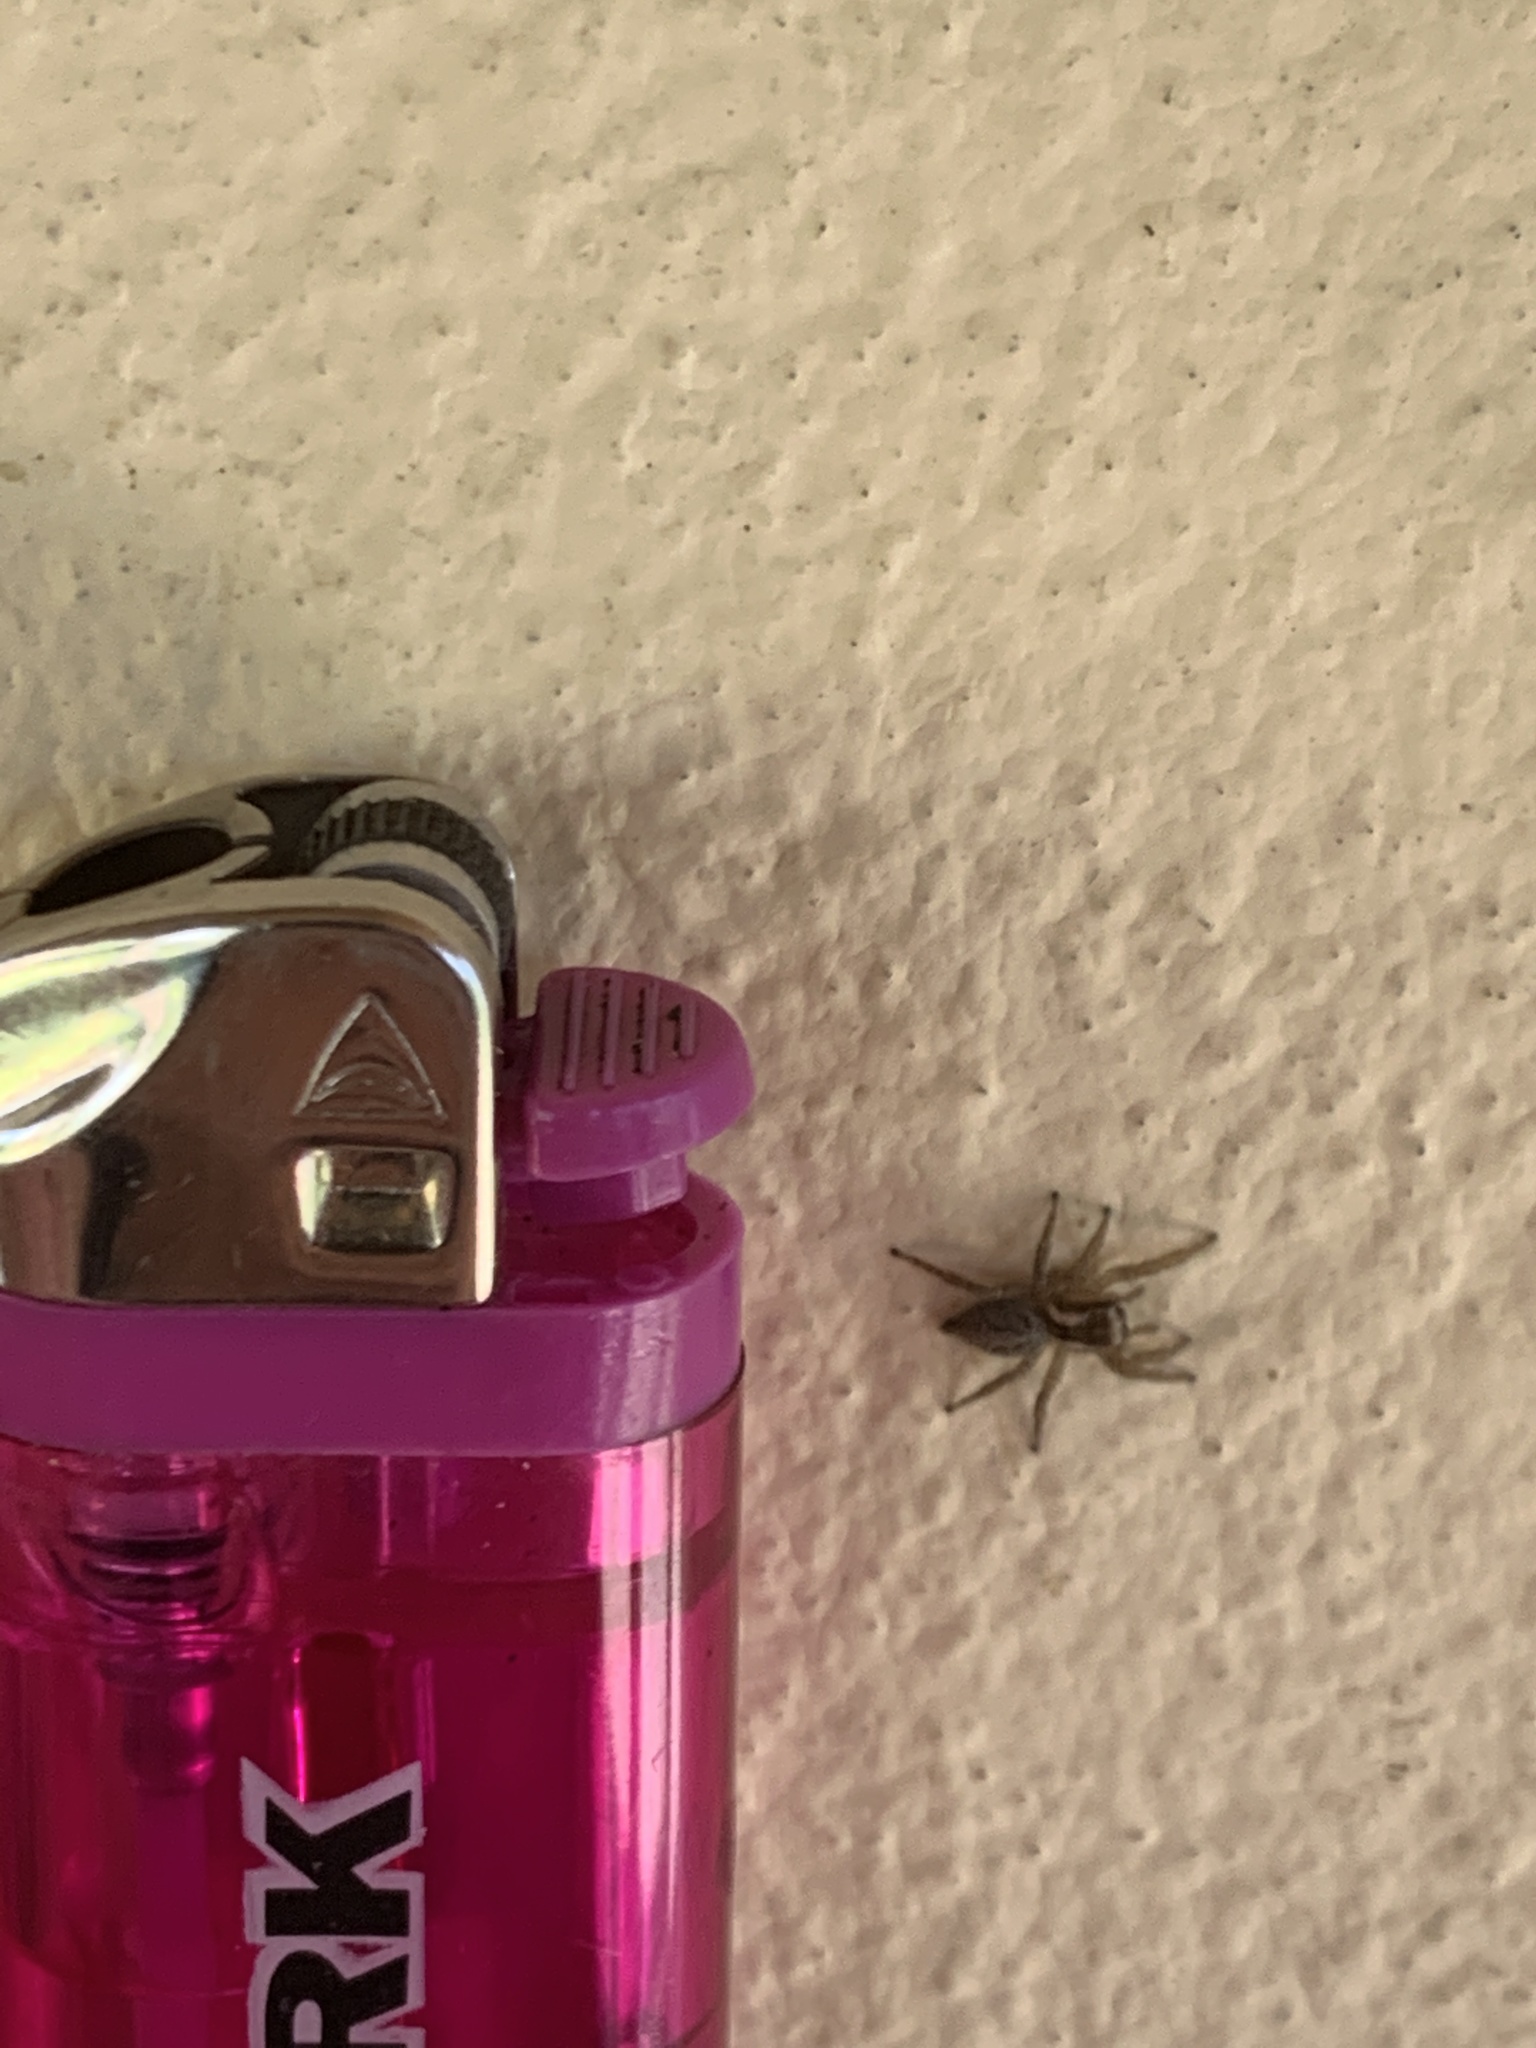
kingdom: Animalia
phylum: Arthropoda
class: Arachnida
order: Araneae
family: Salticidae
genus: Aphirape
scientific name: Aphirape
